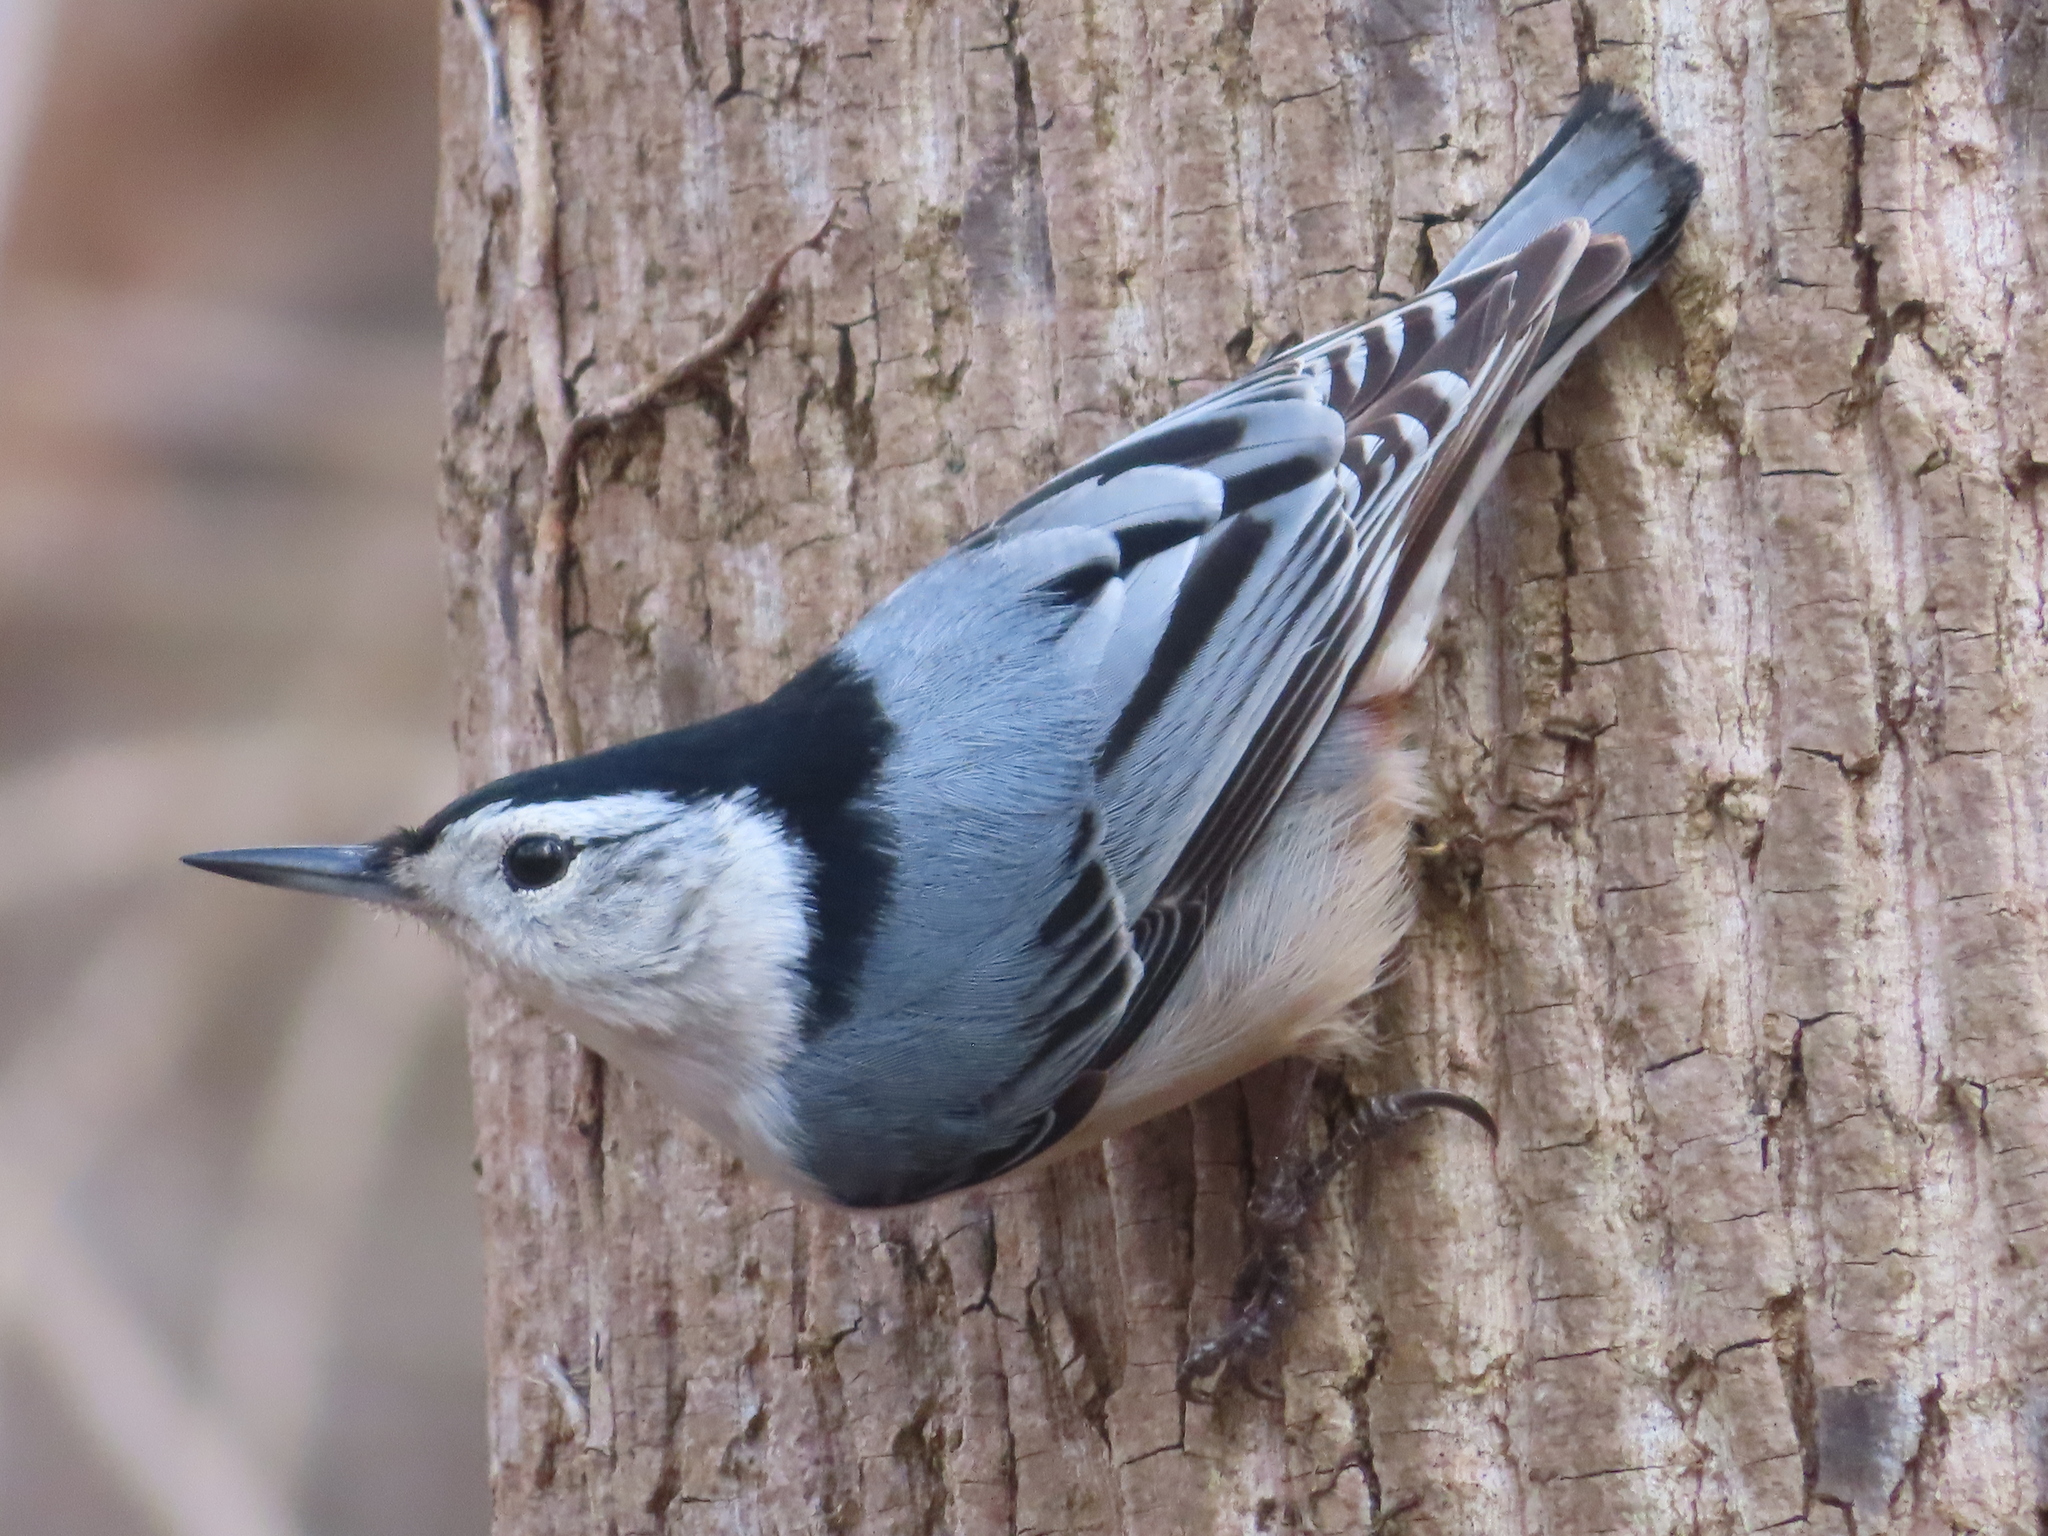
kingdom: Animalia
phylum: Chordata
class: Aves
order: Passeriformes
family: Sittidae
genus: Sitta
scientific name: Sitta carolinensis
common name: White-breasted nuthatch
